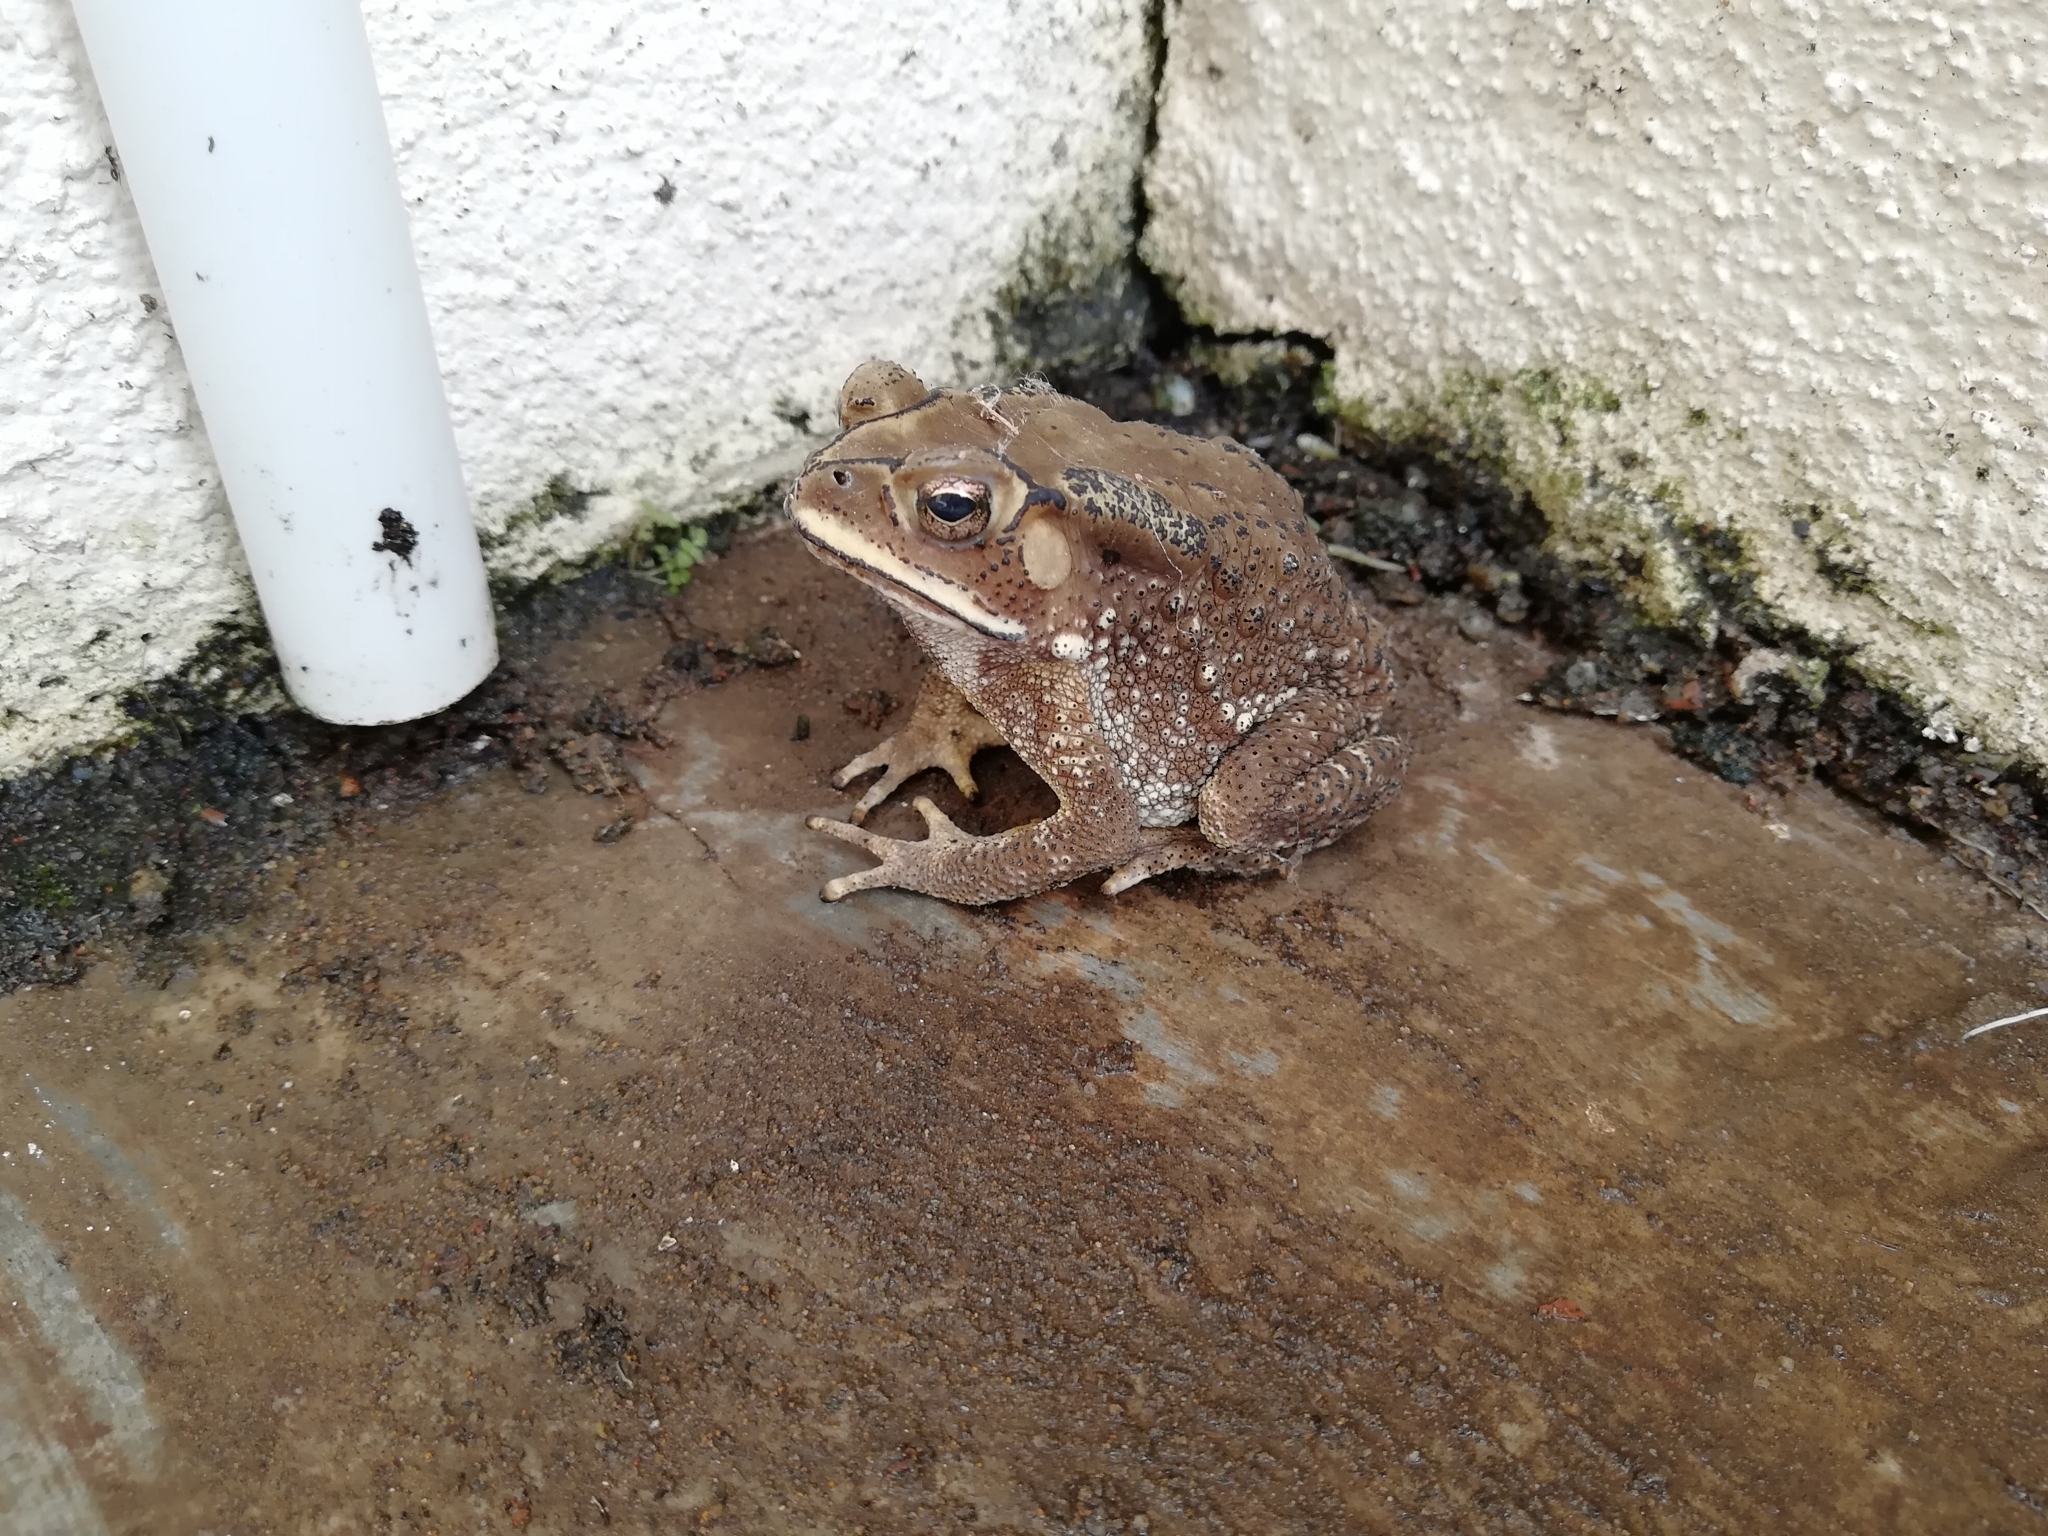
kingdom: Animalia
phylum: Chordata
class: Amphibia
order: Anura
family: Bufonidae
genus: Duttaphrynus
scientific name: Duttaphrynus melanostictus
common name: Common sunda toad
